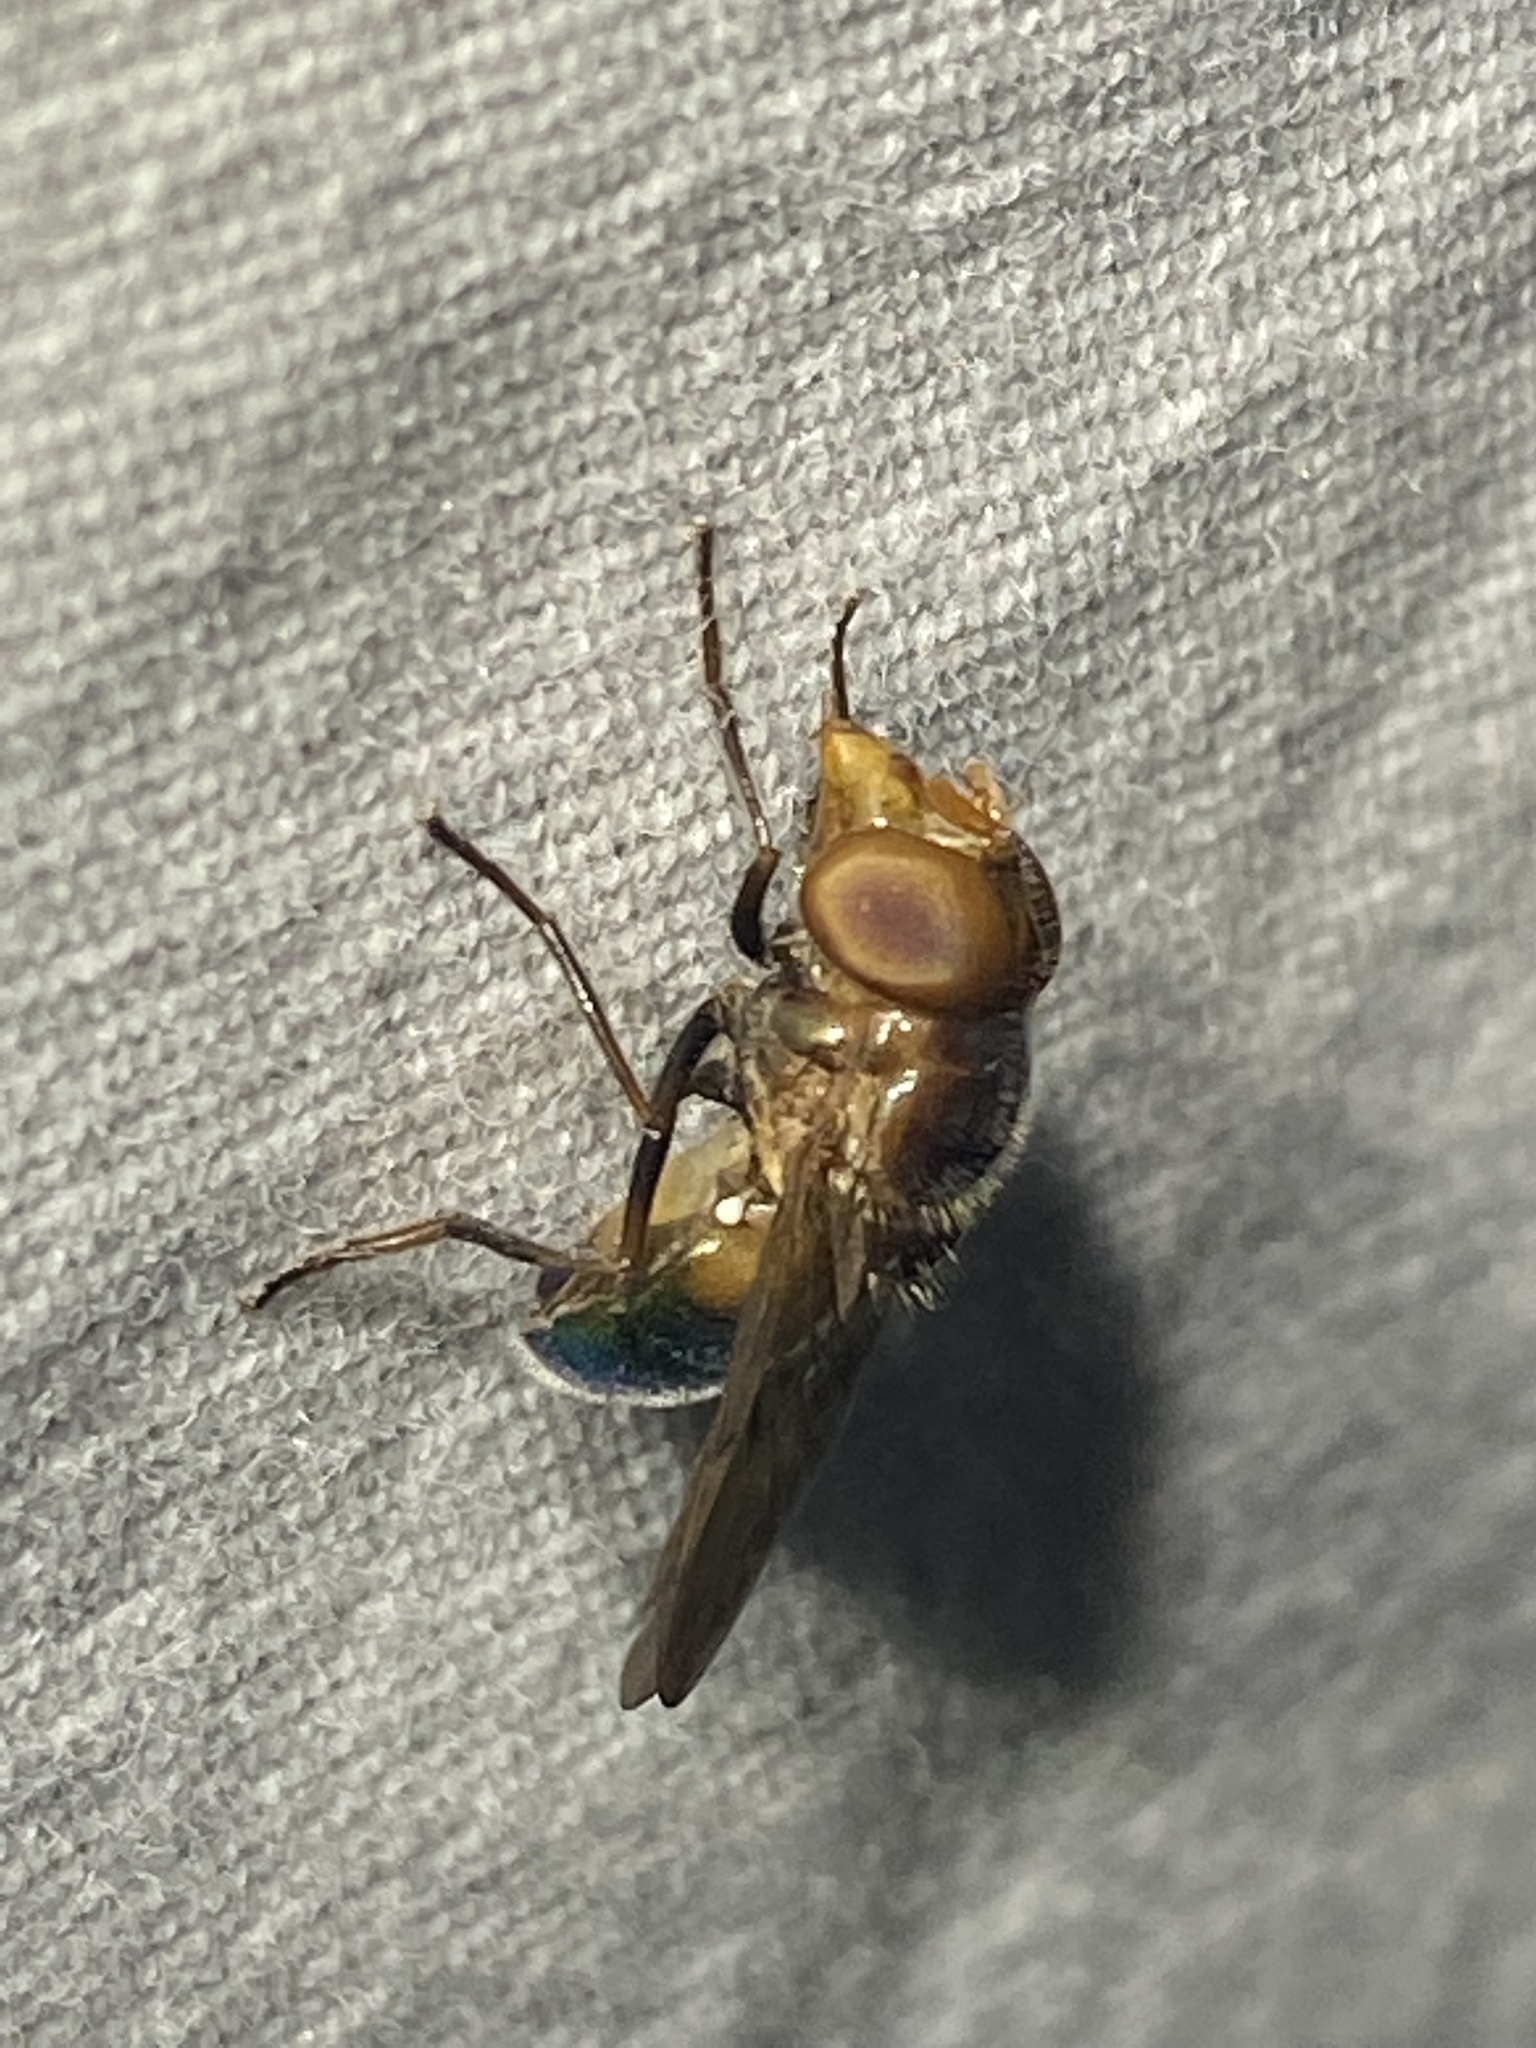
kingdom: Animalia
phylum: Arthropoda
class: Insecta
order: Diptera
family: Syrphidae
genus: Copestylum
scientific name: Copestylum vesicularium
